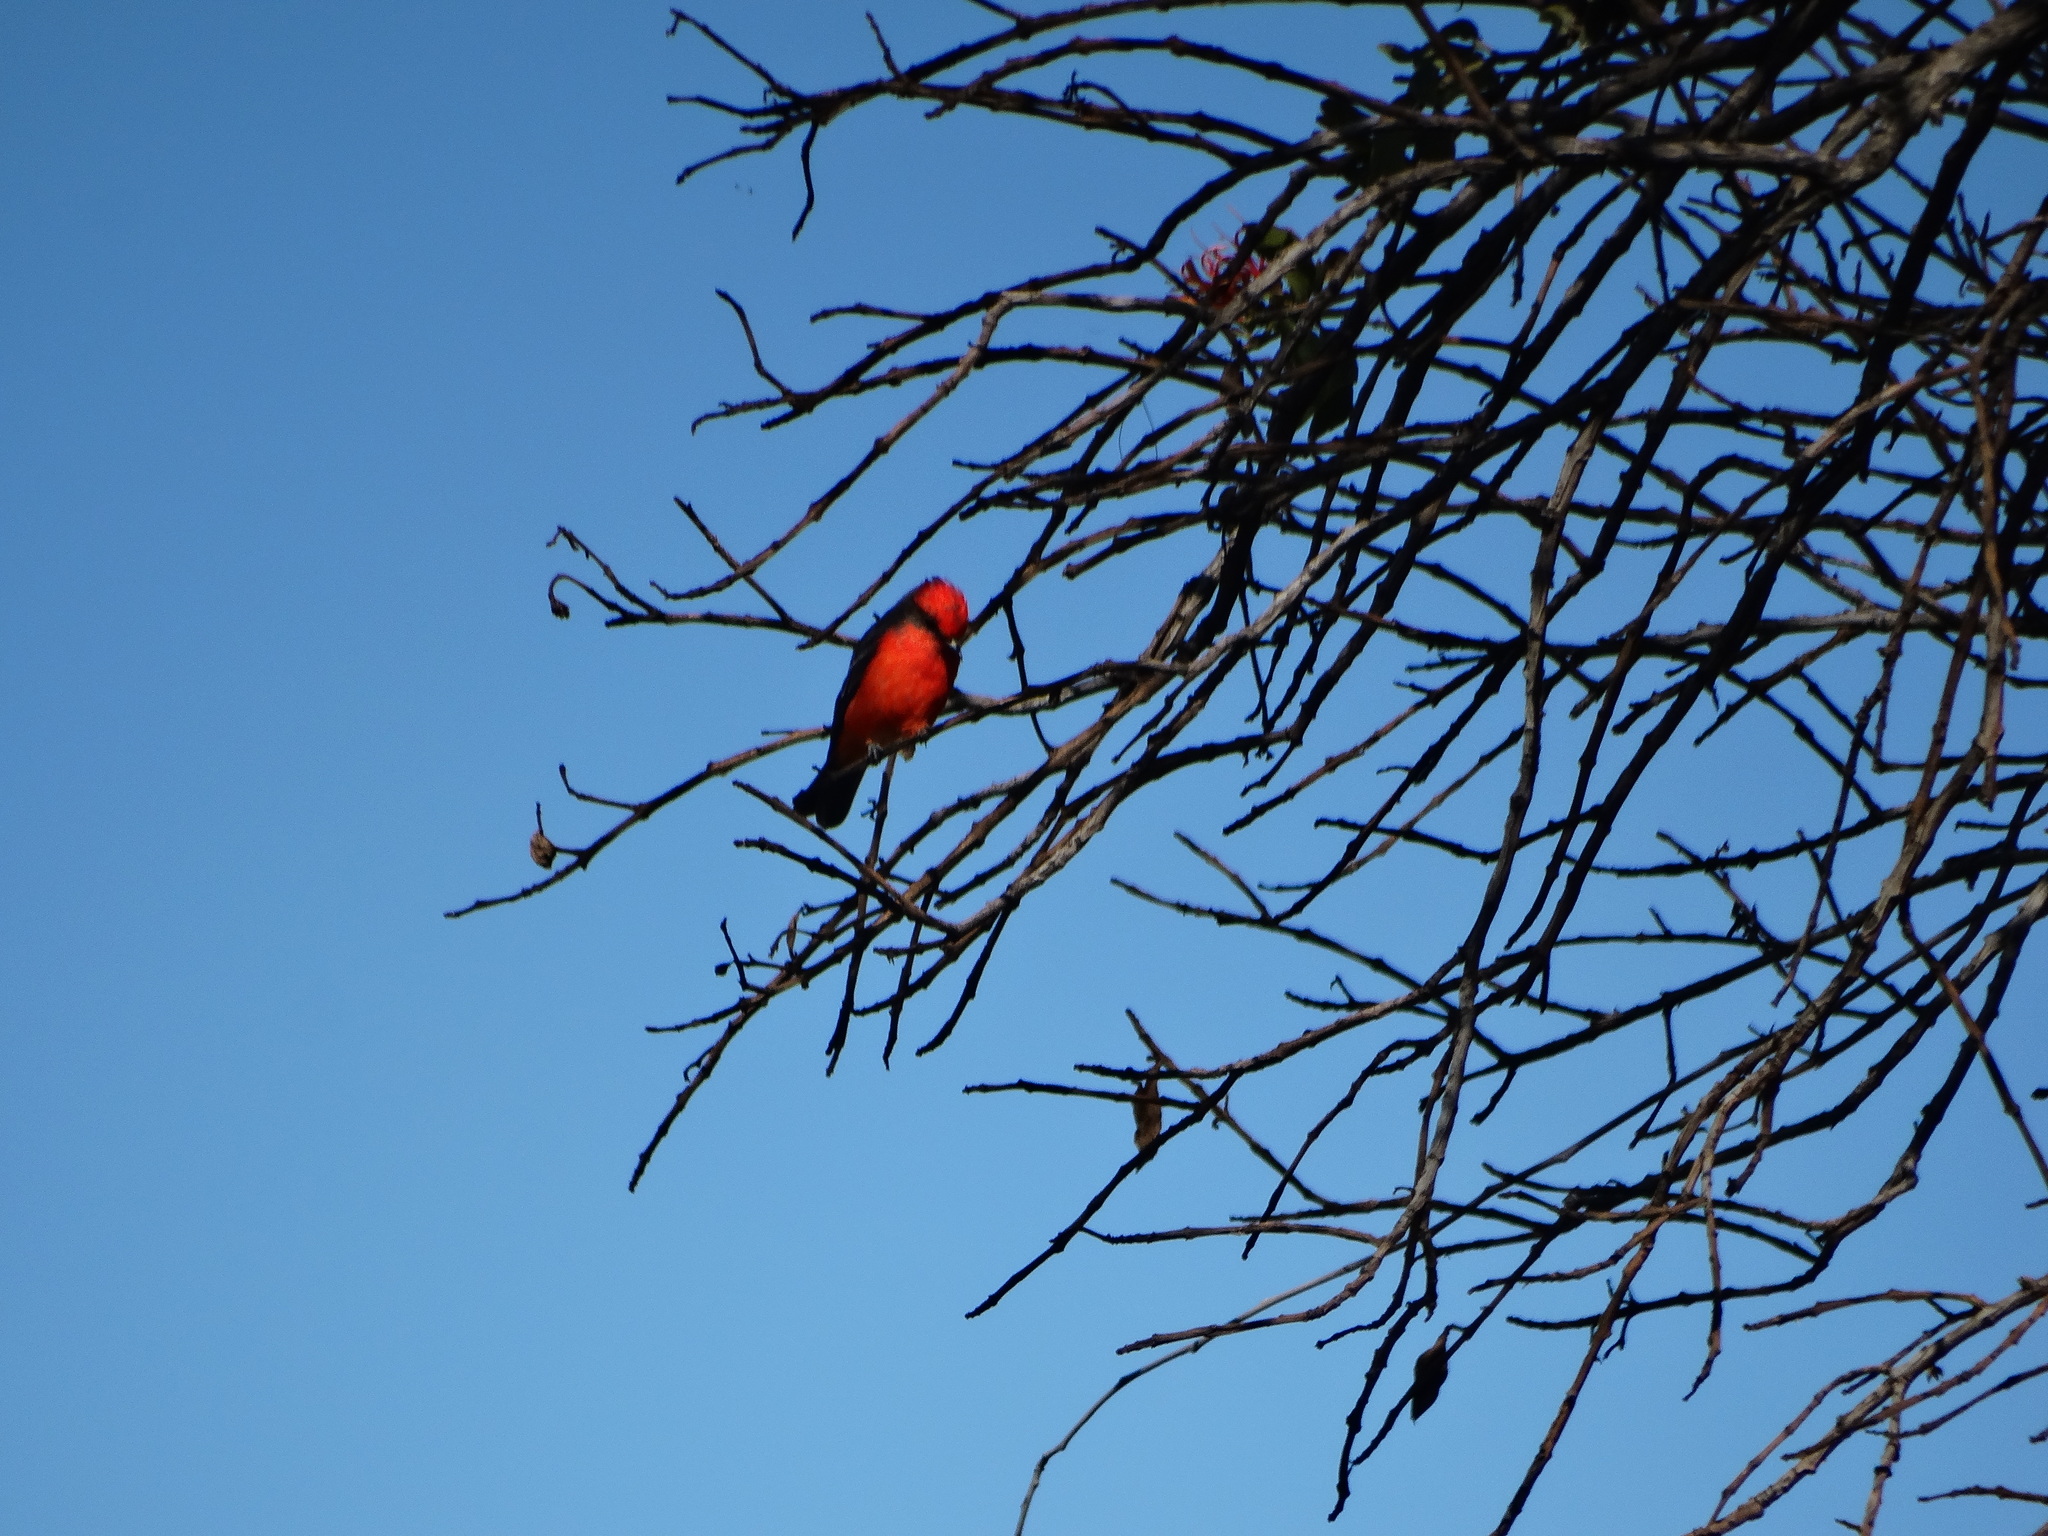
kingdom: Animalia
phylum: Chordata
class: Aves
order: Passeriformes
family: Tyrannidae
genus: Pyrocephalus
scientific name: Pyrocephalus rubinus
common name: Vermilion flycatcher
